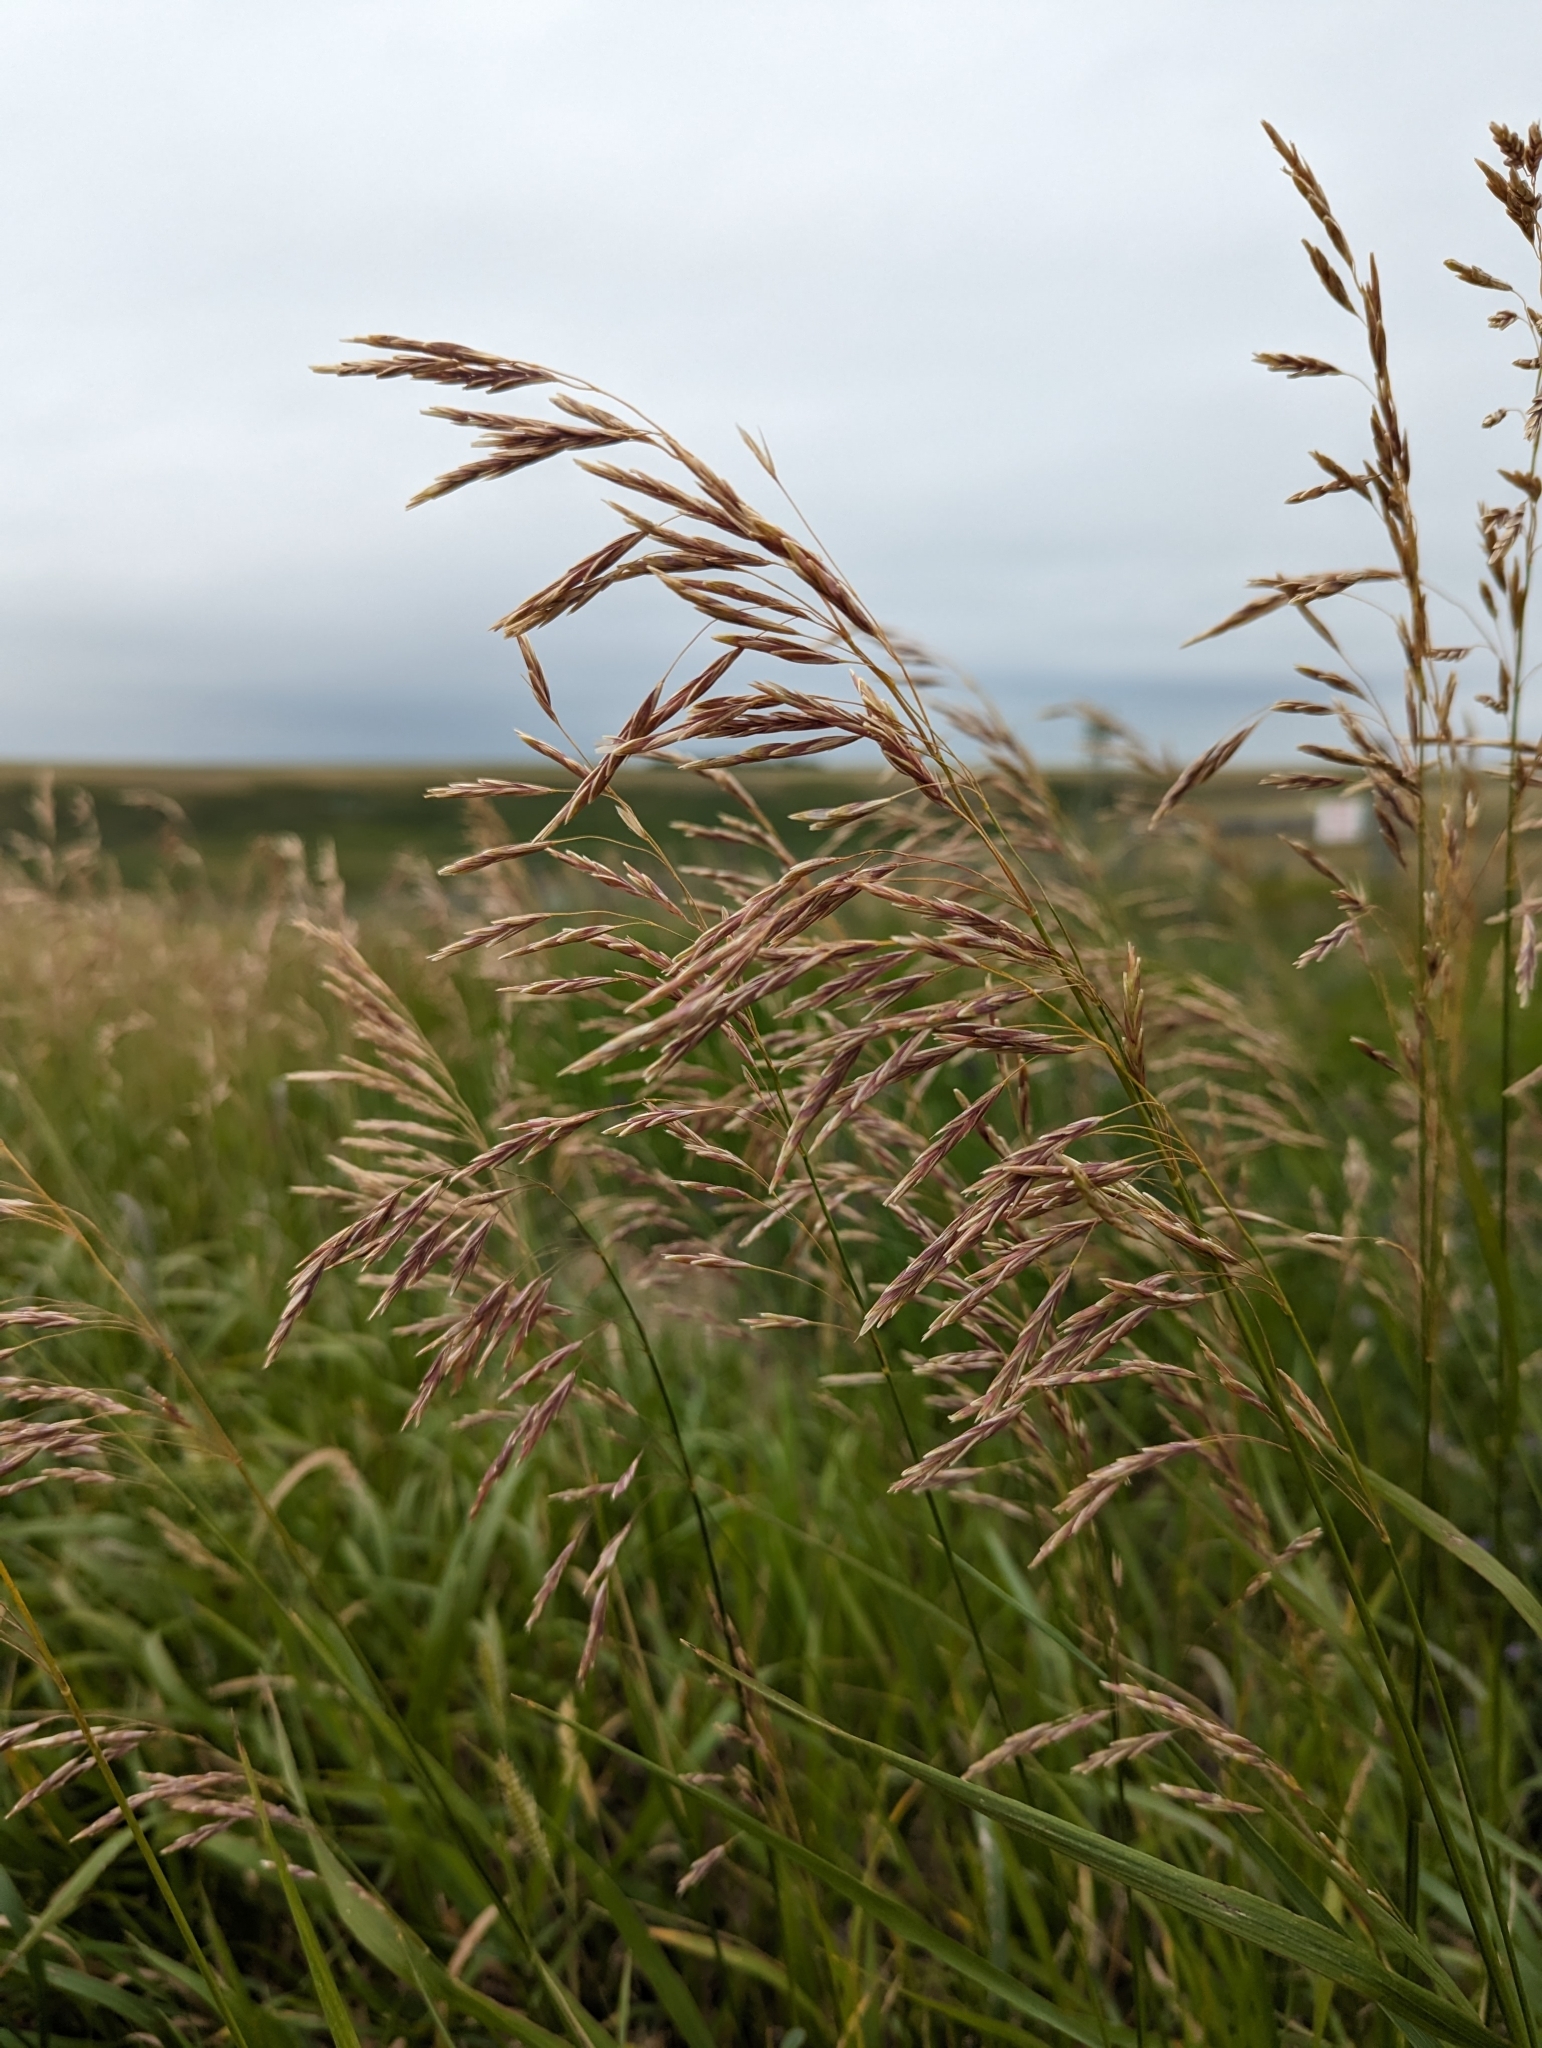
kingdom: Plantae
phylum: Tracheophyta
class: Liliopsida
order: Poales
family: Poaceae
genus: Bromus
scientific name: Bromus inermis
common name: Smooth brome
